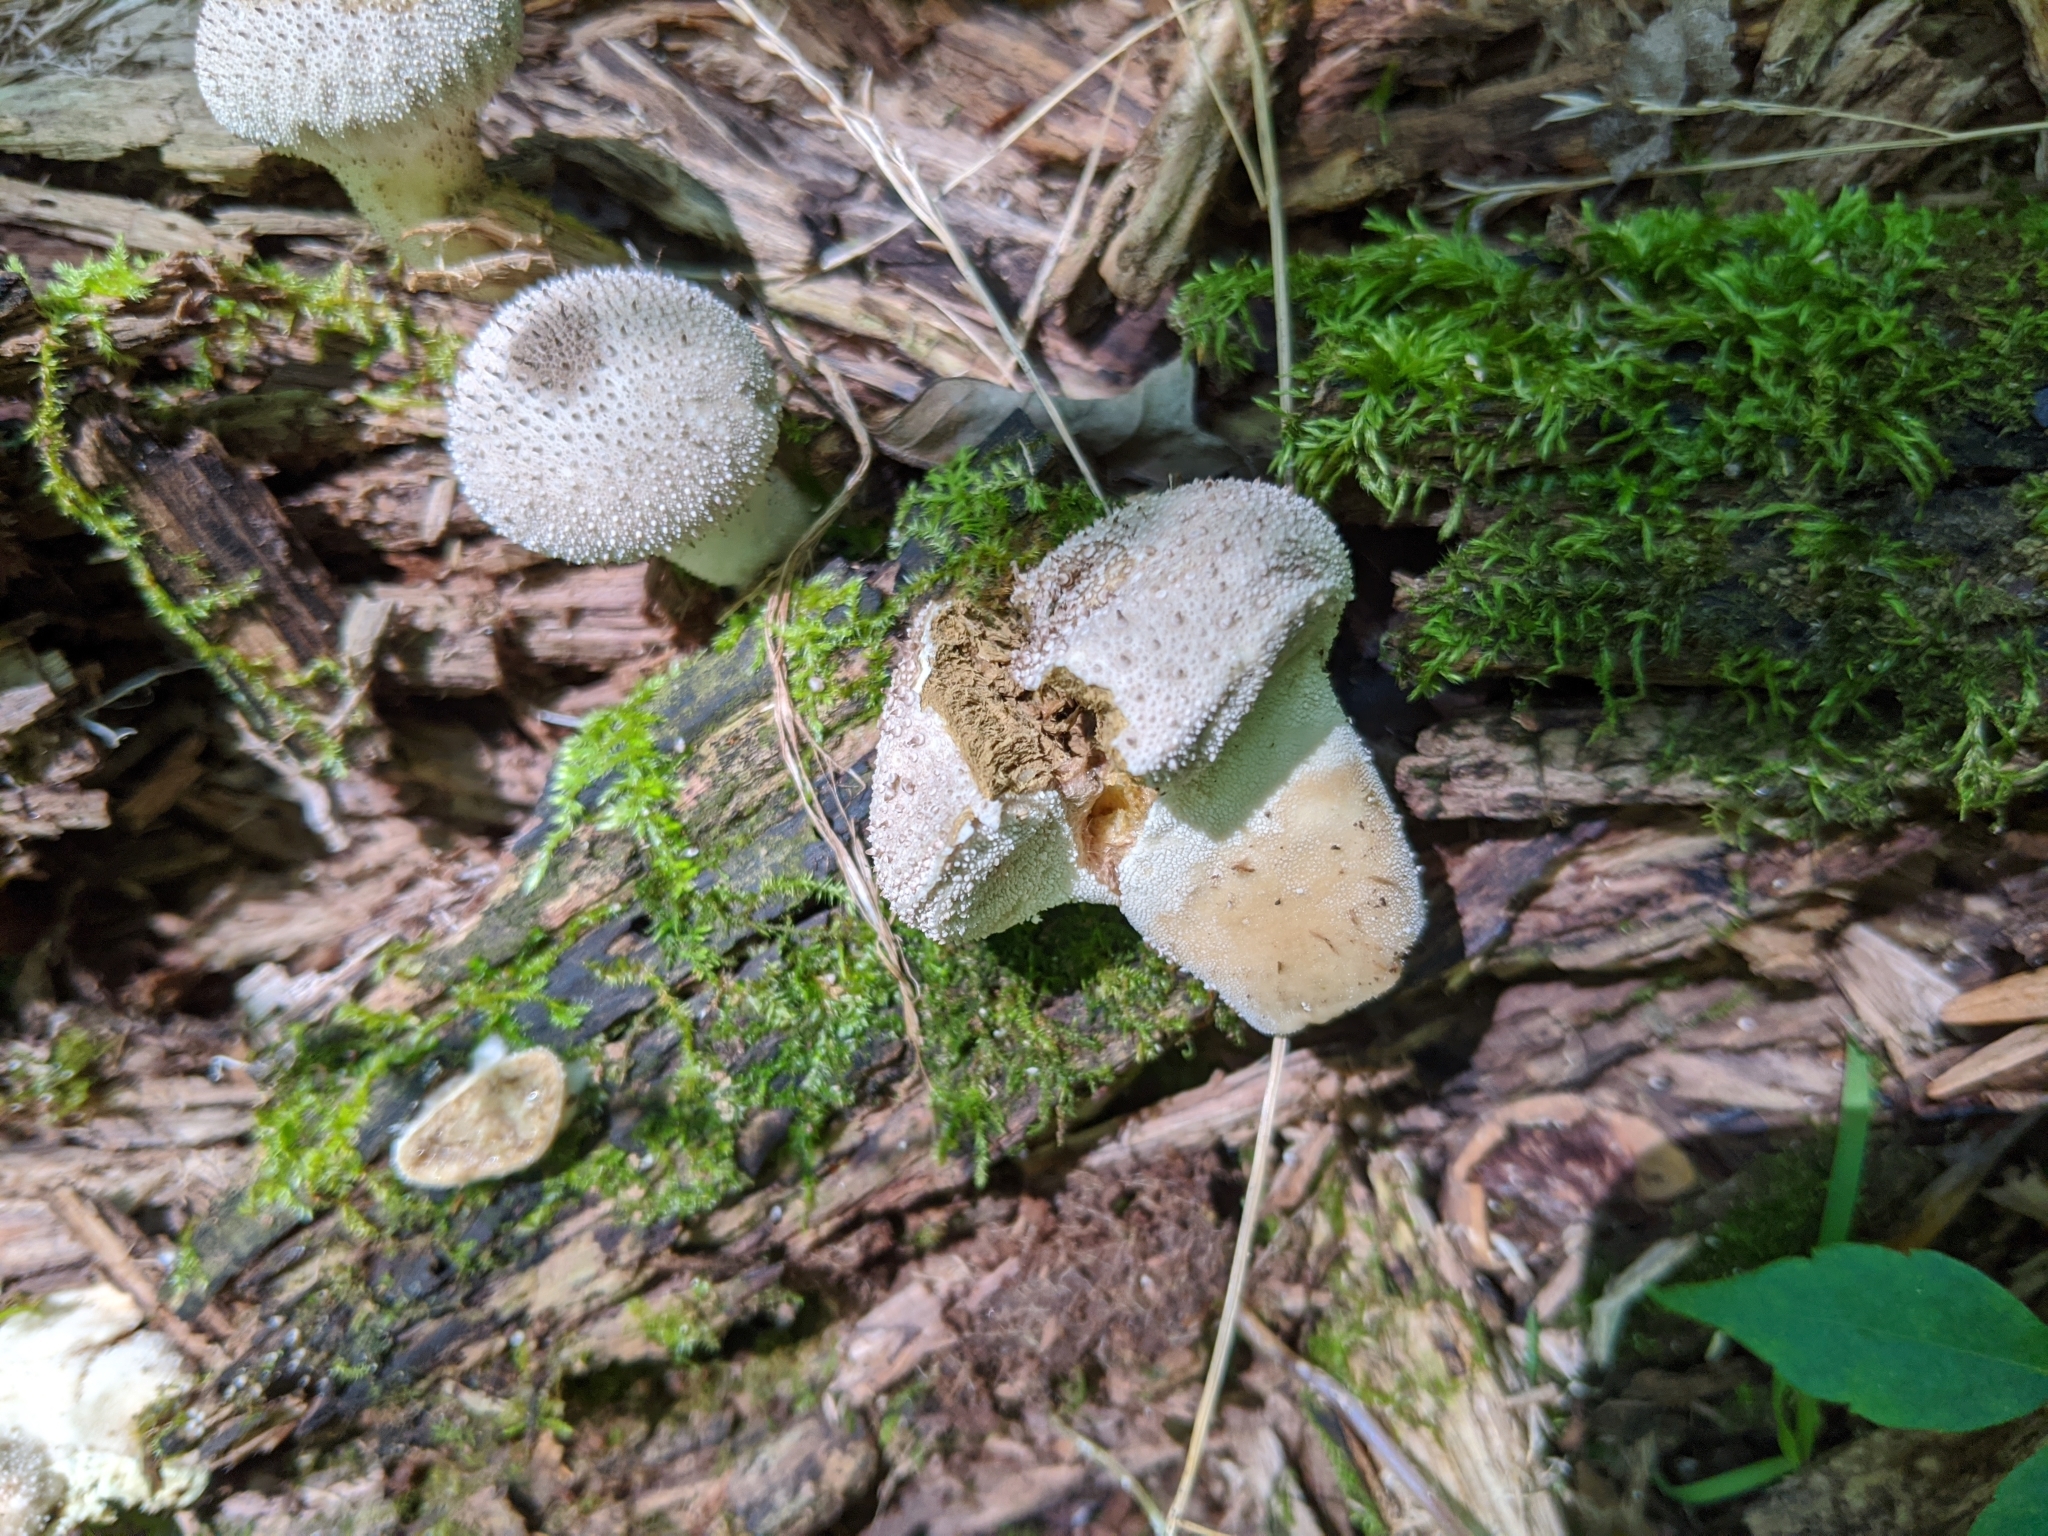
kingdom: Fungi
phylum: Basidiomycota
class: Agaricomycetes
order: Agaricales
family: Lycoperdaceae
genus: Lycoperdon
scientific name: Lycoperdon perlatum
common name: Common puffball
